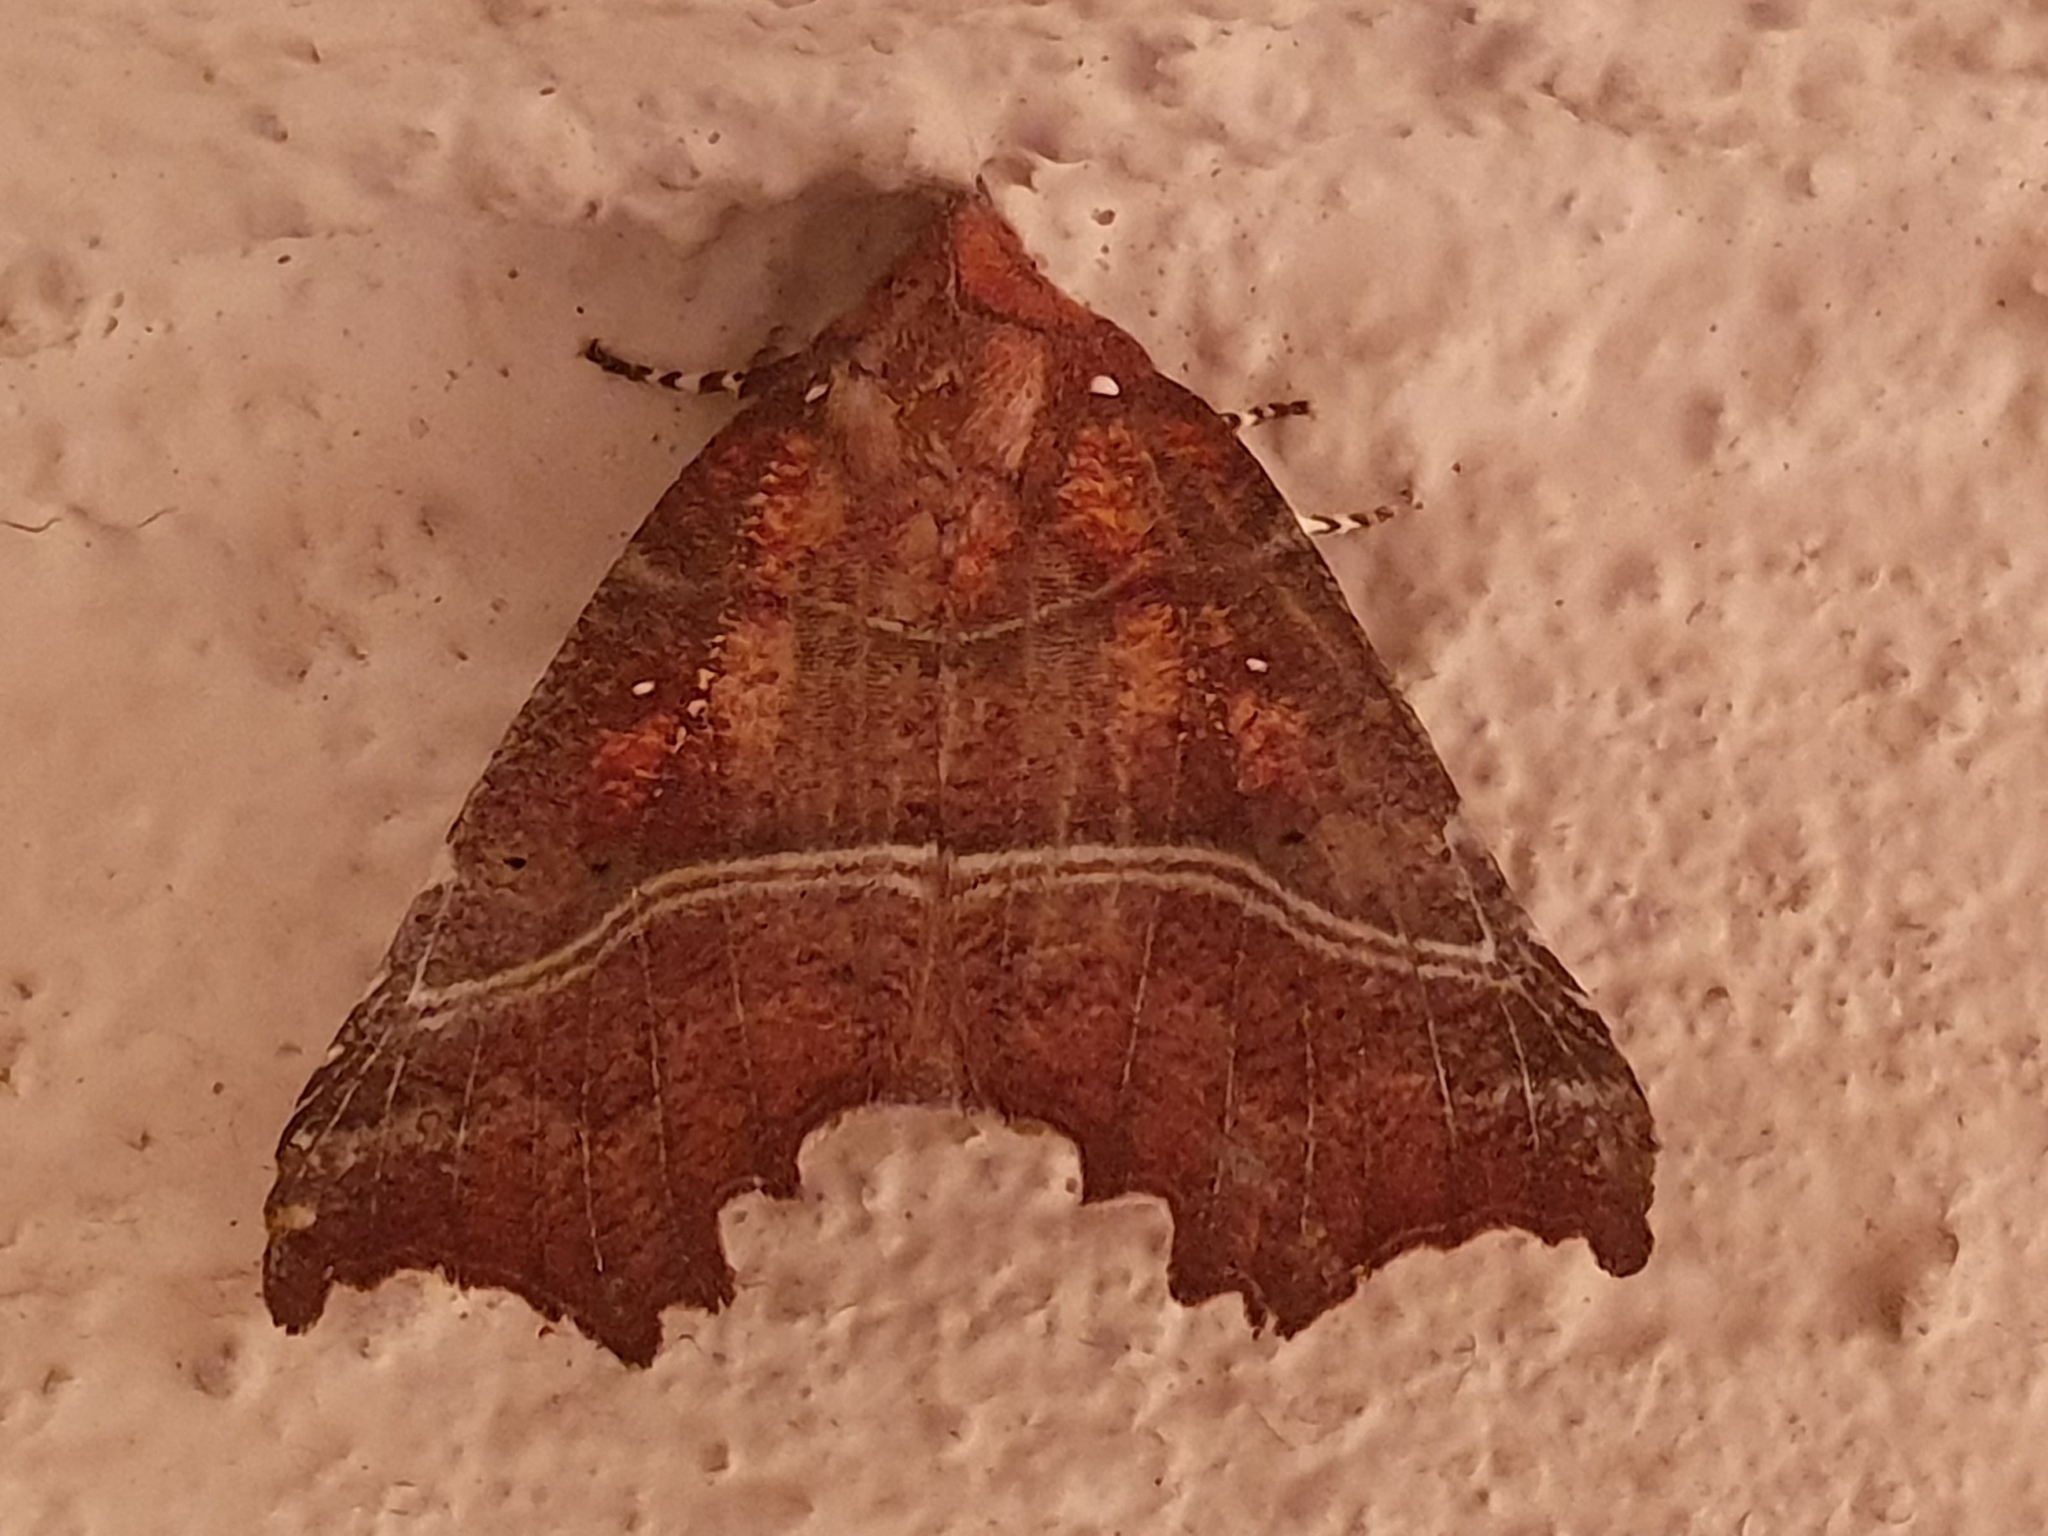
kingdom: Animalia
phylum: Arthropoda
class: Insecta
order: Lepidoptera
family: Erebidae
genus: Scoliopteryx
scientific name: Scoliopteryx libatrix
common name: Herald
